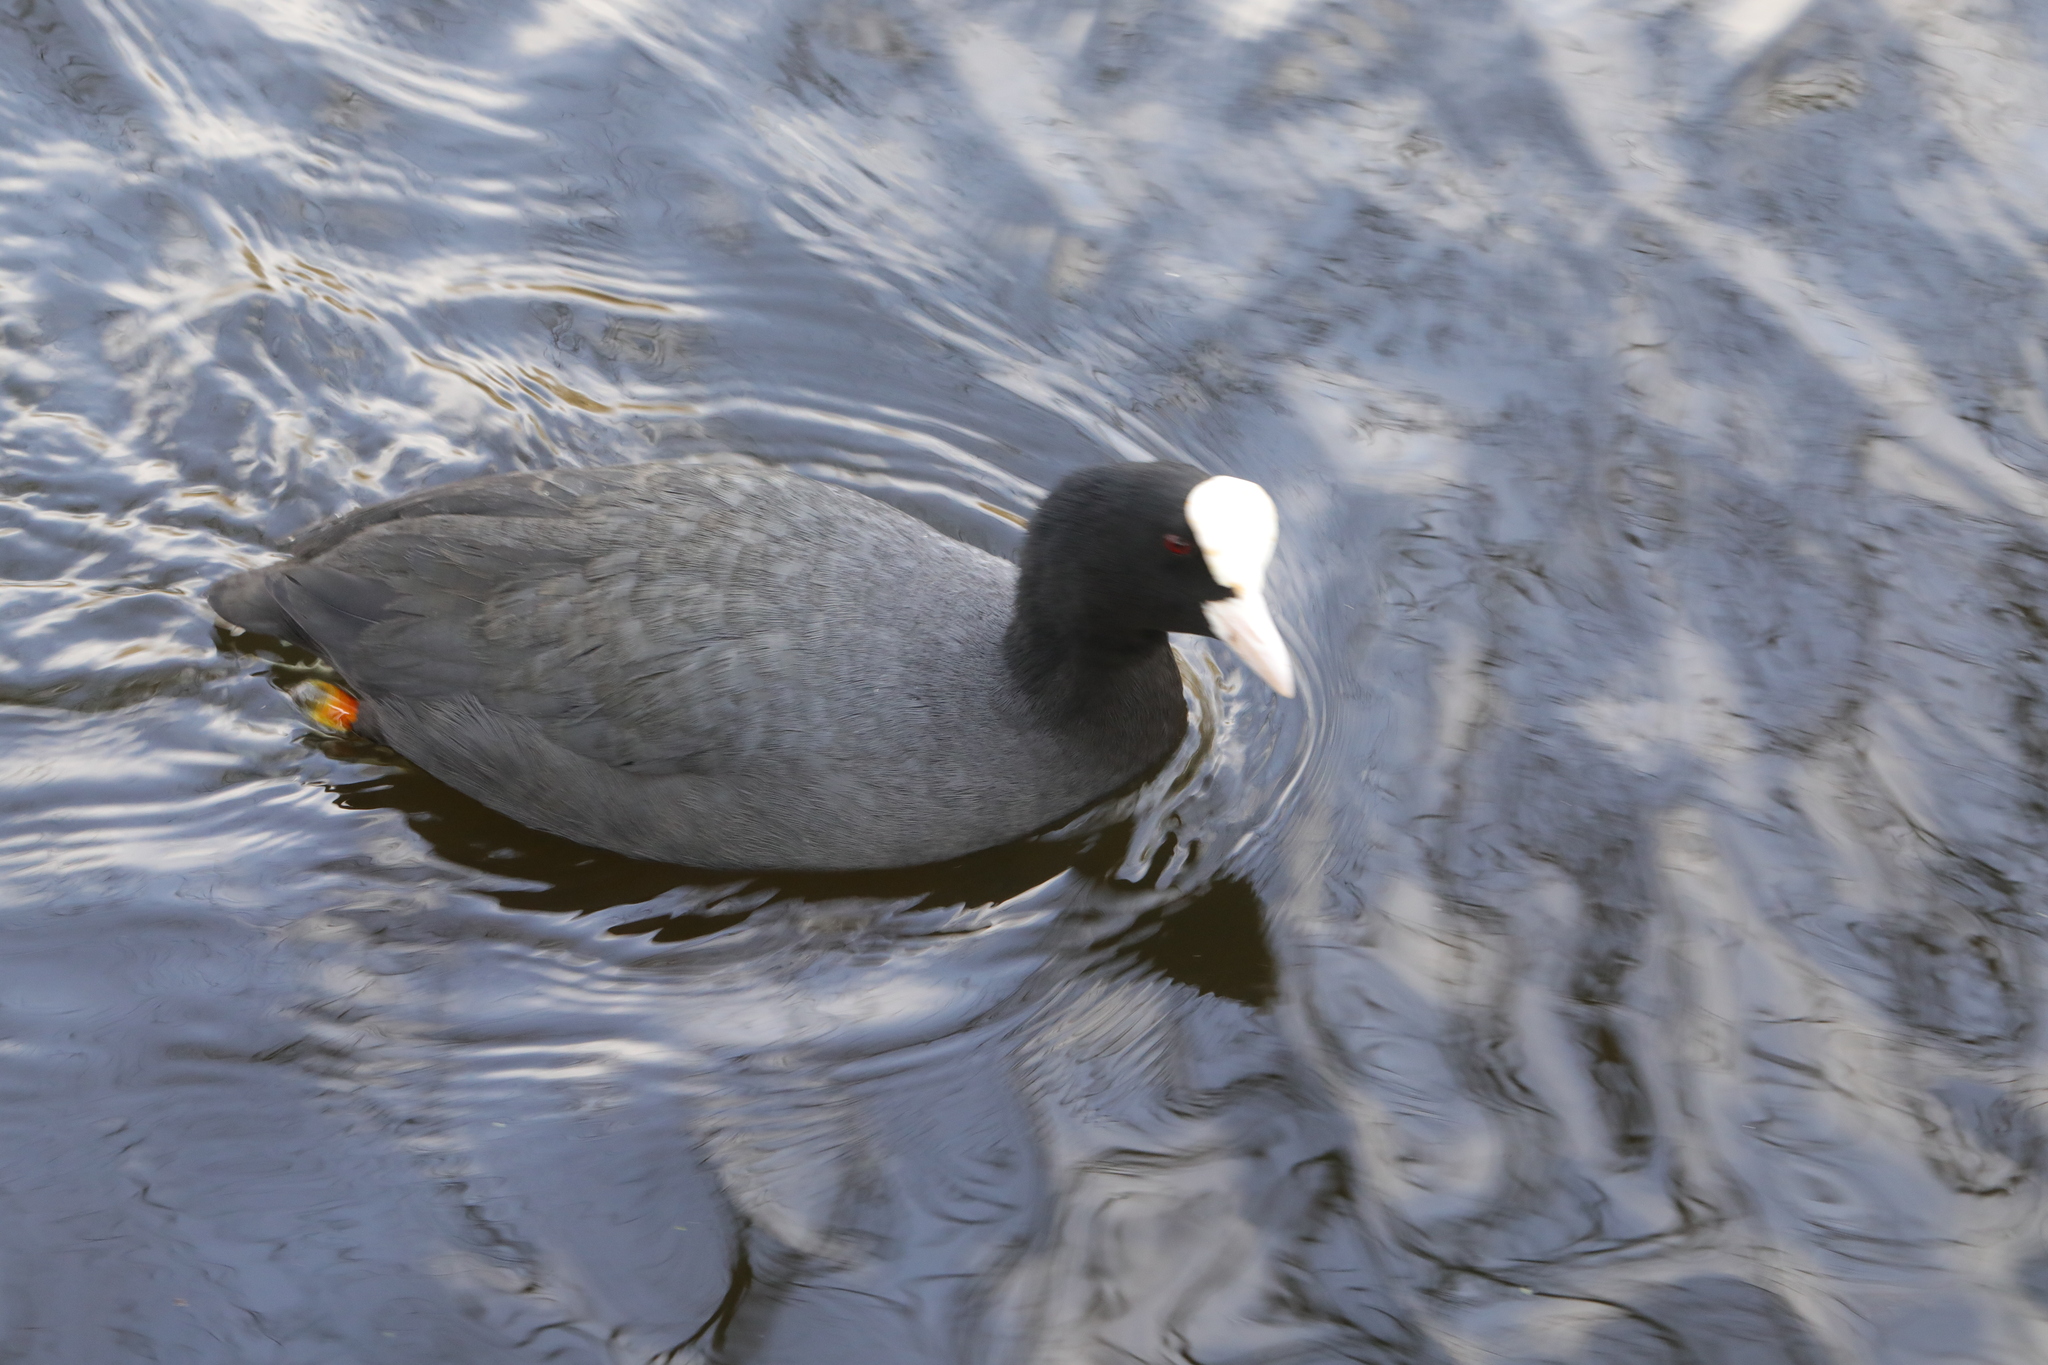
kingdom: Animalia
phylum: Chordata
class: Aves
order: Gruiformes
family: Rallidae
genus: Fulica
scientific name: Fulica atra
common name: Eurasian coot
